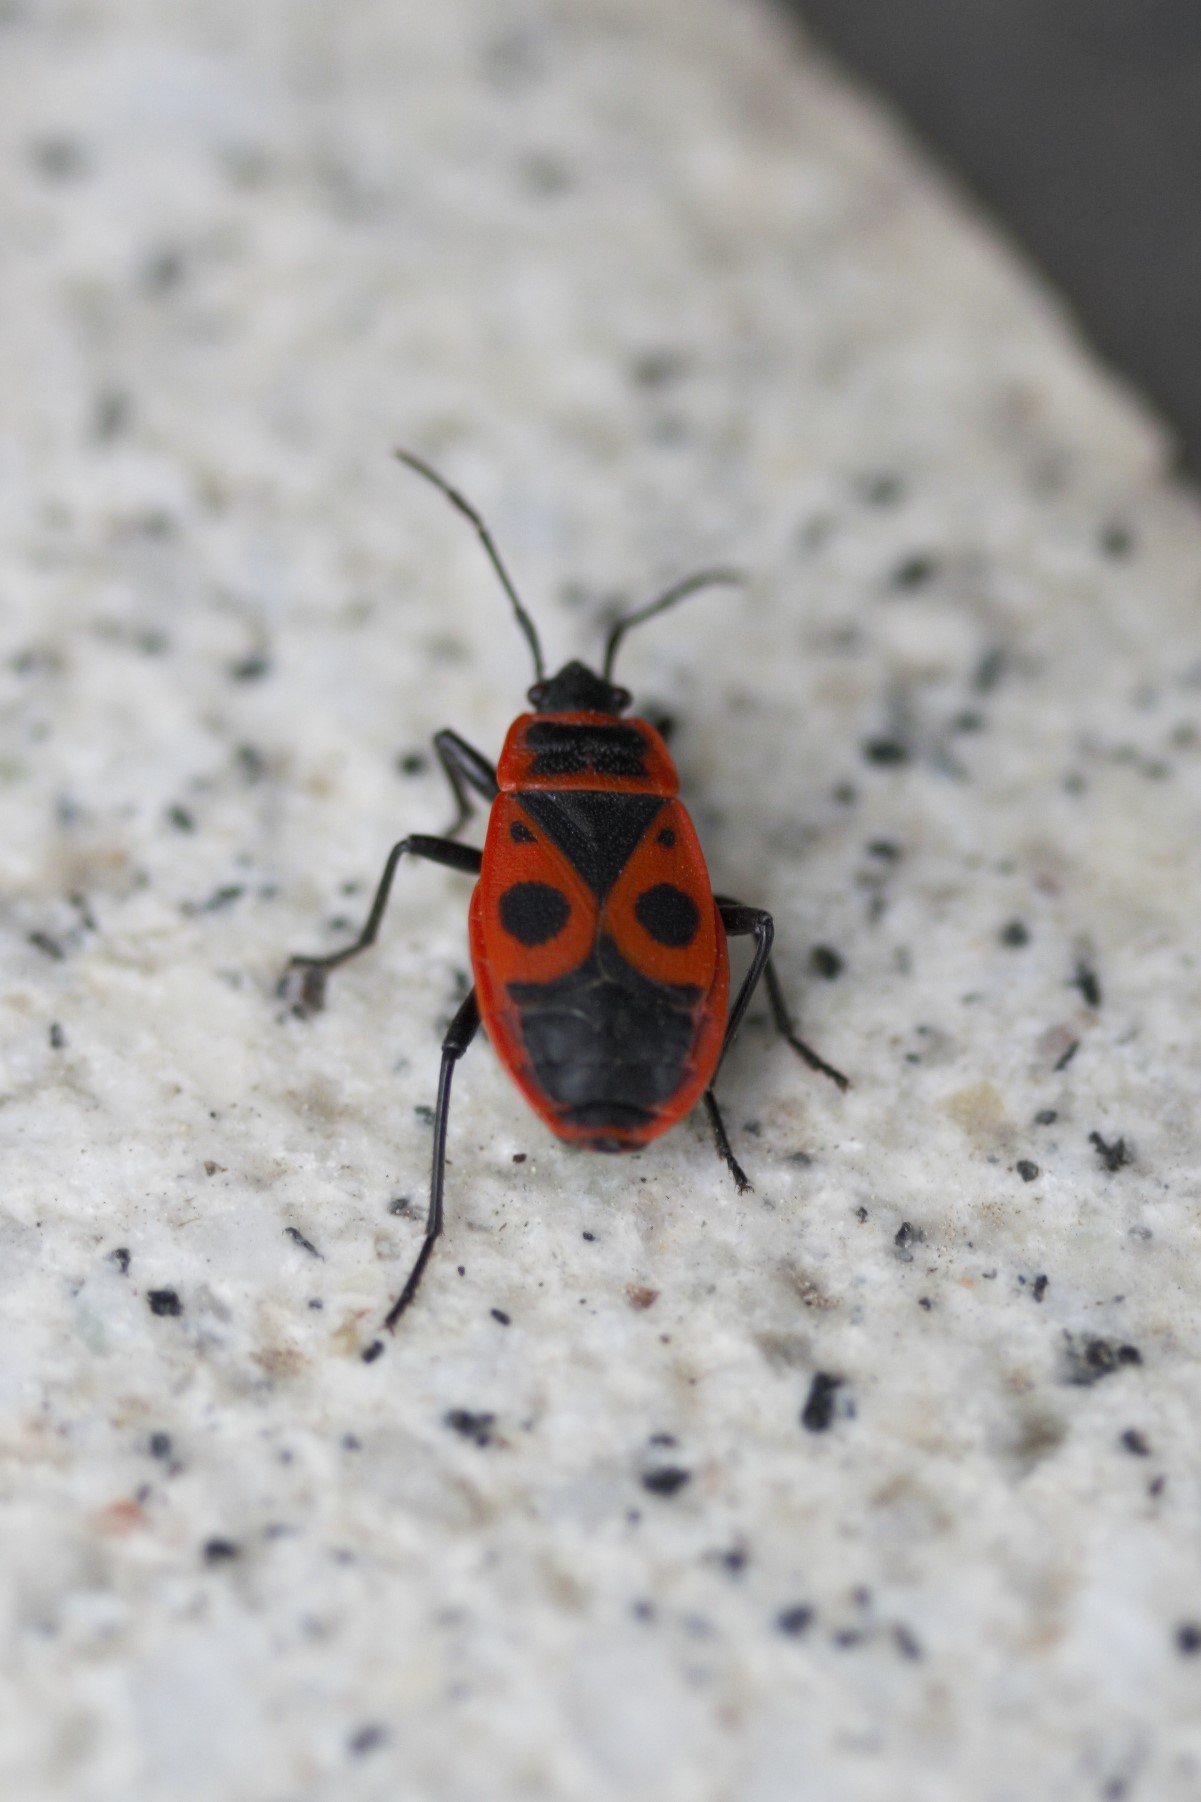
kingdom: Animalia
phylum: Arthropoda
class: Insecta
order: Hemiptera
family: Pyrrhocoridae
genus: Pyrrhocoris
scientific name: Pyrrhocoris apterus
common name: Firebug
